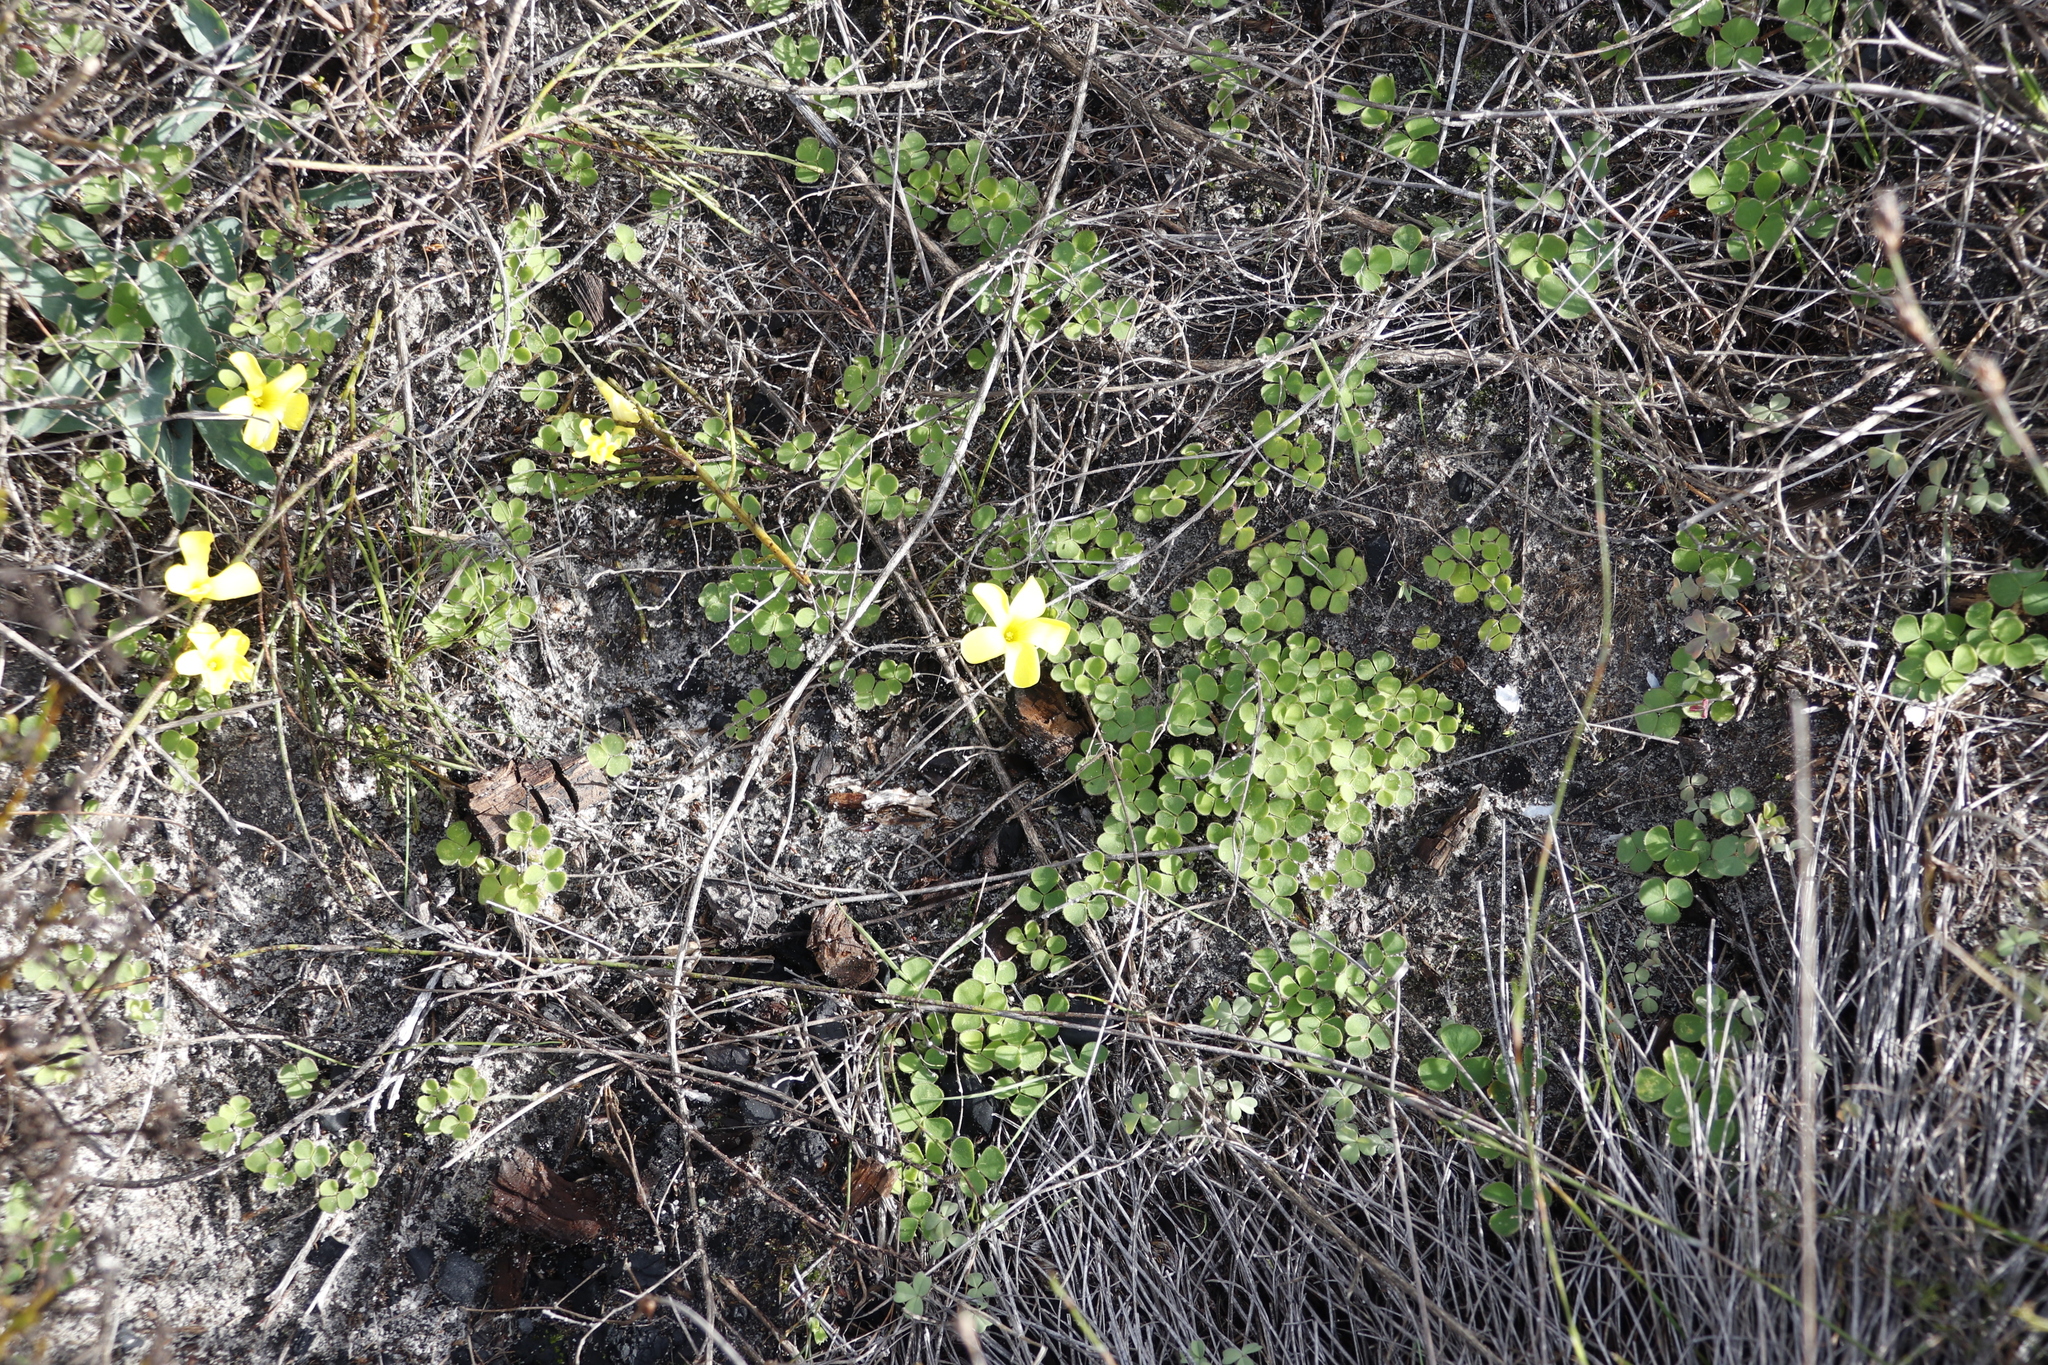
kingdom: Plantae
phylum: Tracheophyta
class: Magnoliopsida
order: Oxalidales
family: Oxalidaceae
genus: Oxalis
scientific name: Oxalis luteola
